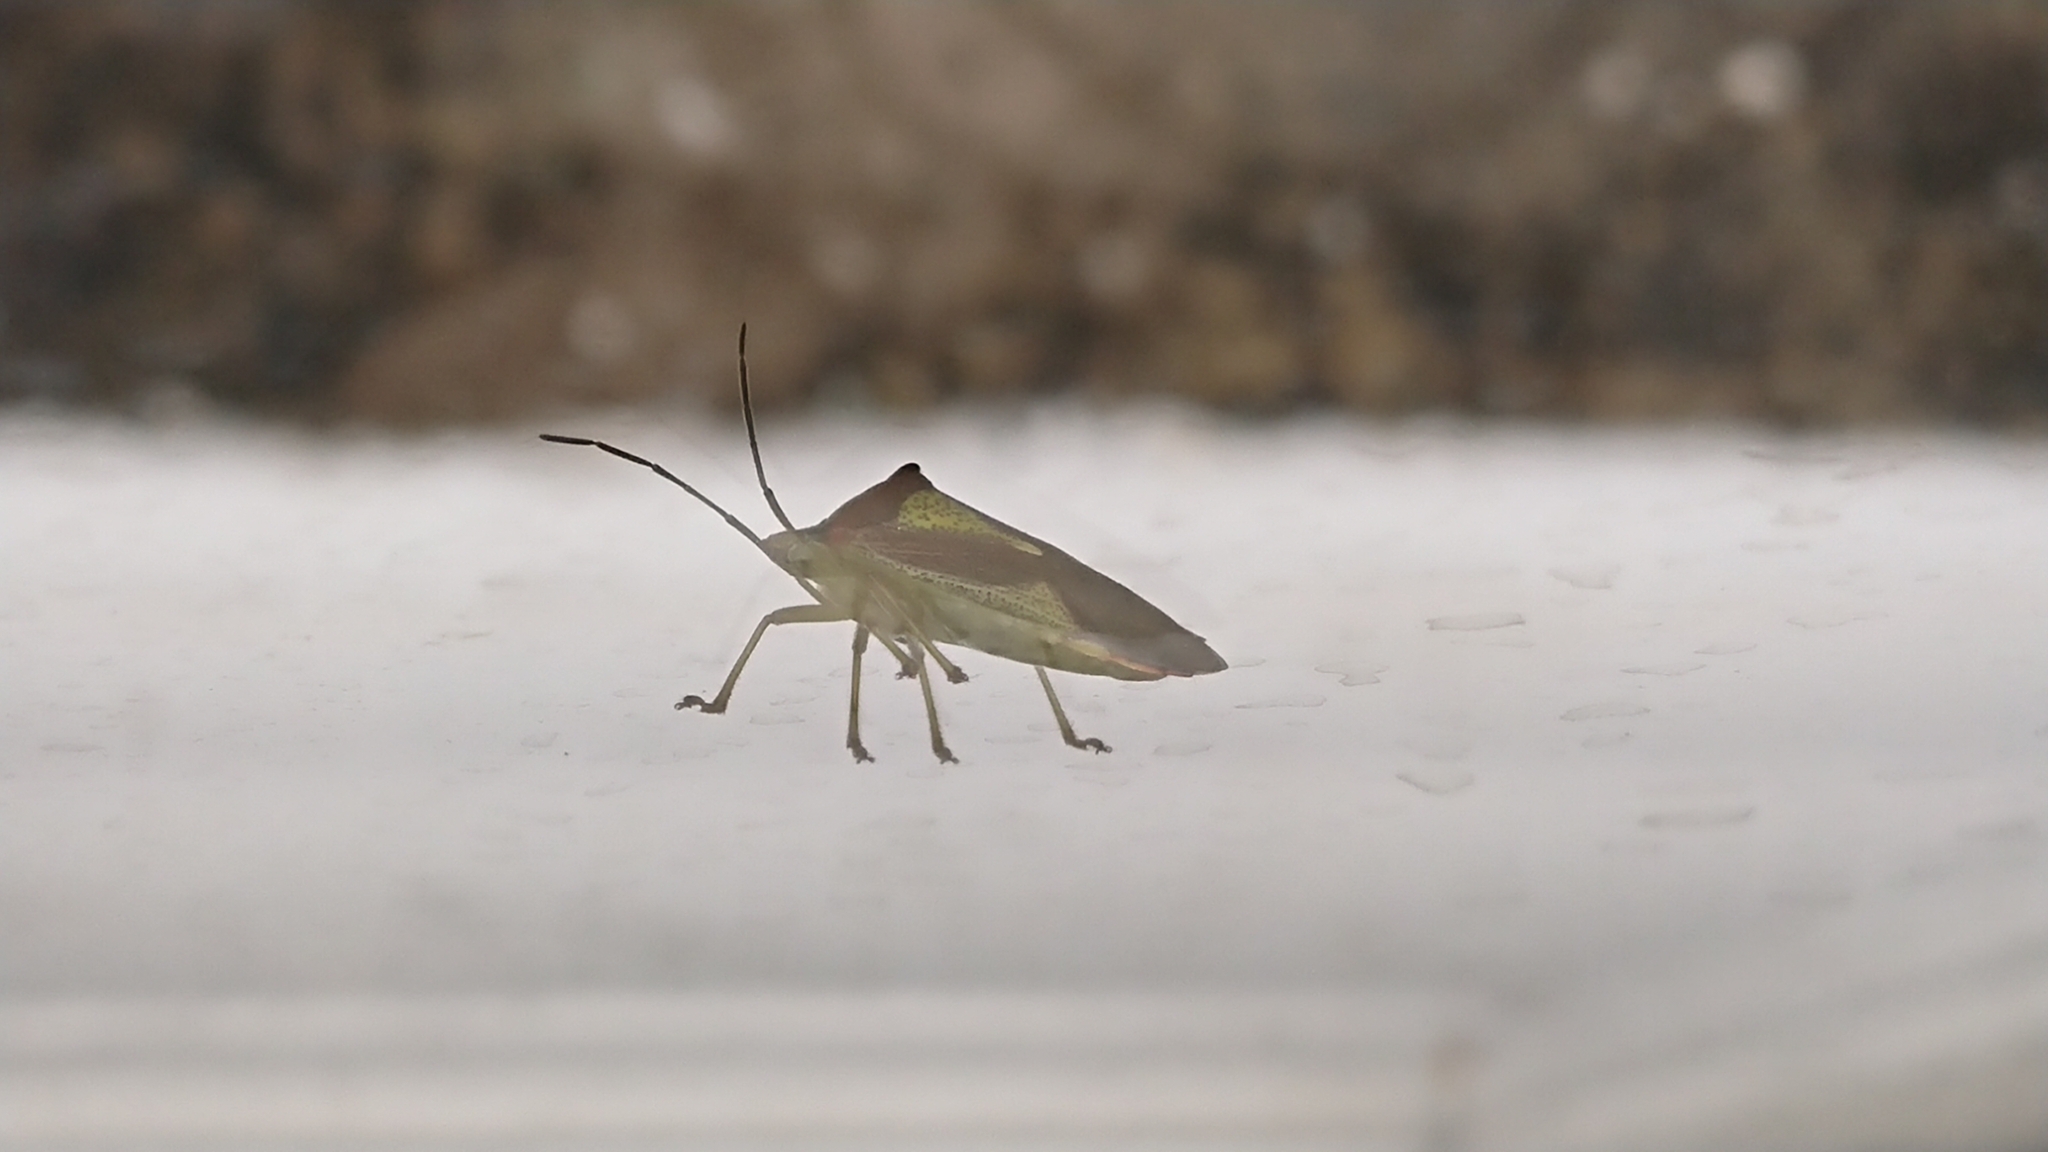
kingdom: Animalia
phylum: Arthropoda
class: Insecta
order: Hemiptera
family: Acanthosomatidae
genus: Acanthosoma
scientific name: Acanthosoma haemorrhoidale
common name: Hawthorn shieldbug
